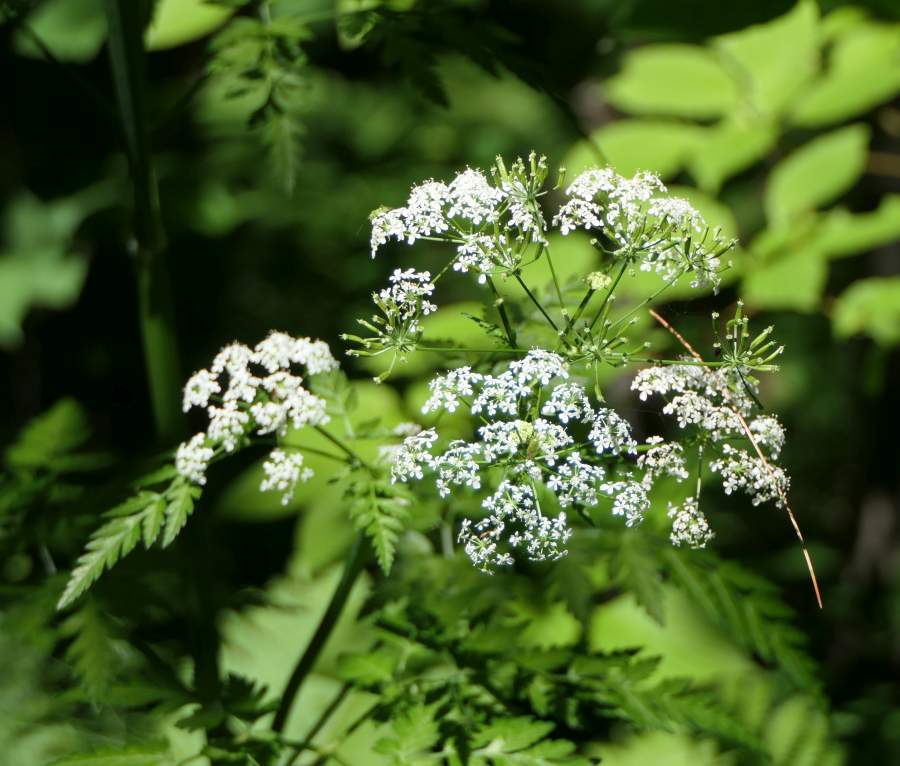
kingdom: Plantae
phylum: Tracheophyta
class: Magnoliopsida
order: Apiales
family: Apiaceae
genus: Anthriscus
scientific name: Anthriscus sylvestris
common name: Cow parsley
